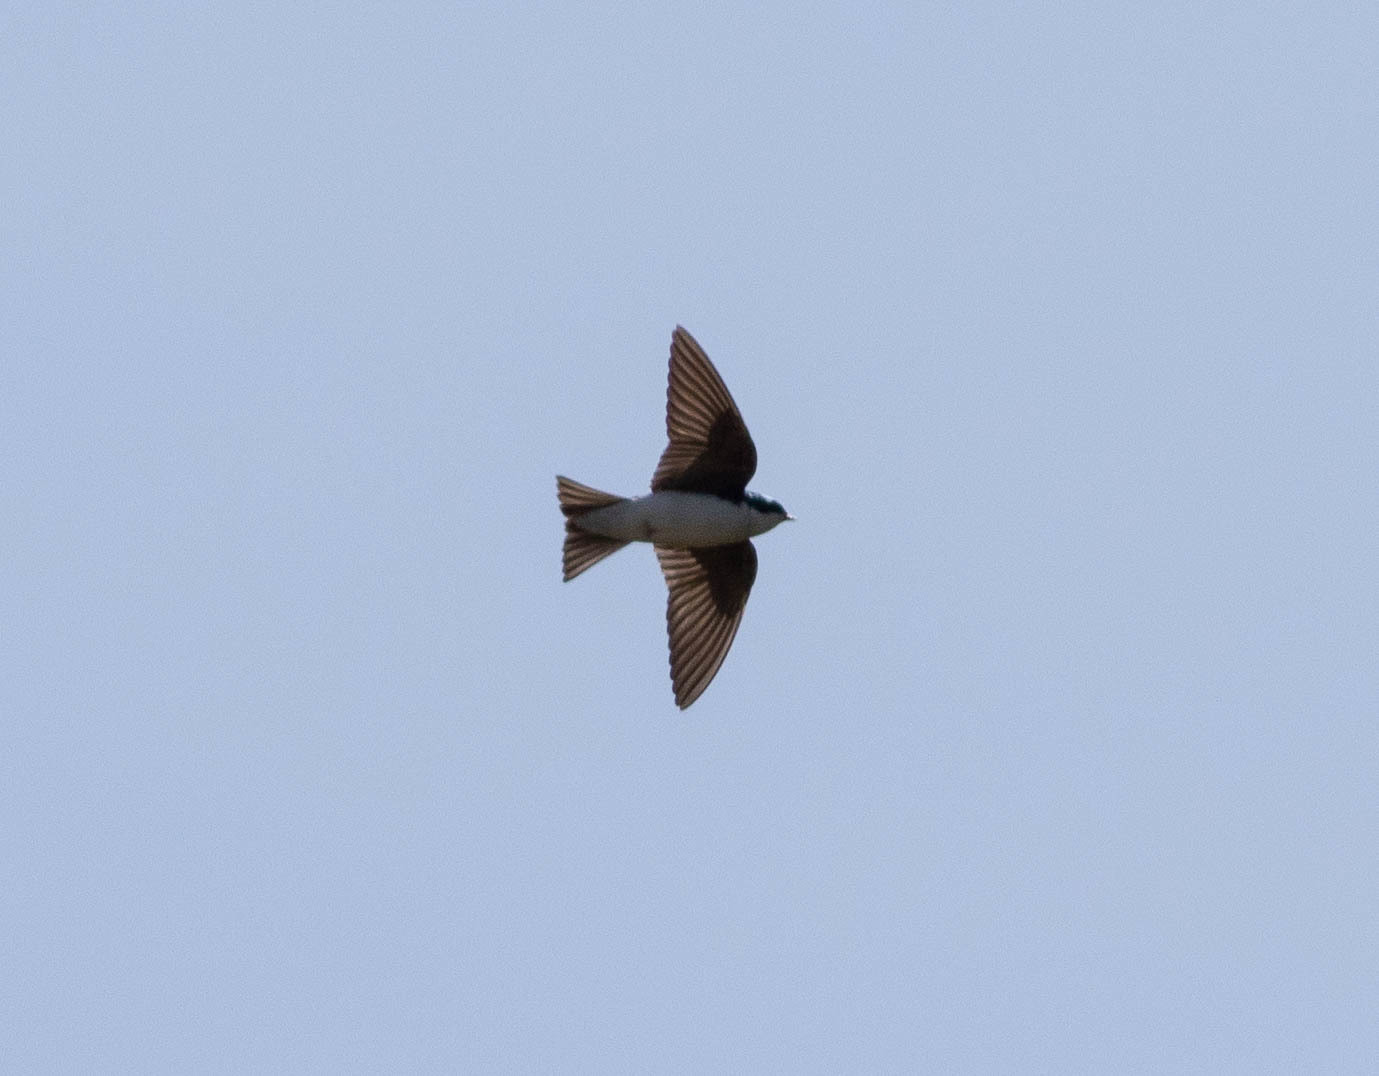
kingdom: Animalia
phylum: Chordata
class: Aves
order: Passeriformes
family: Hirundinidae
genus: Tachycineta
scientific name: Tachycineta bicolor
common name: Tree swallow
